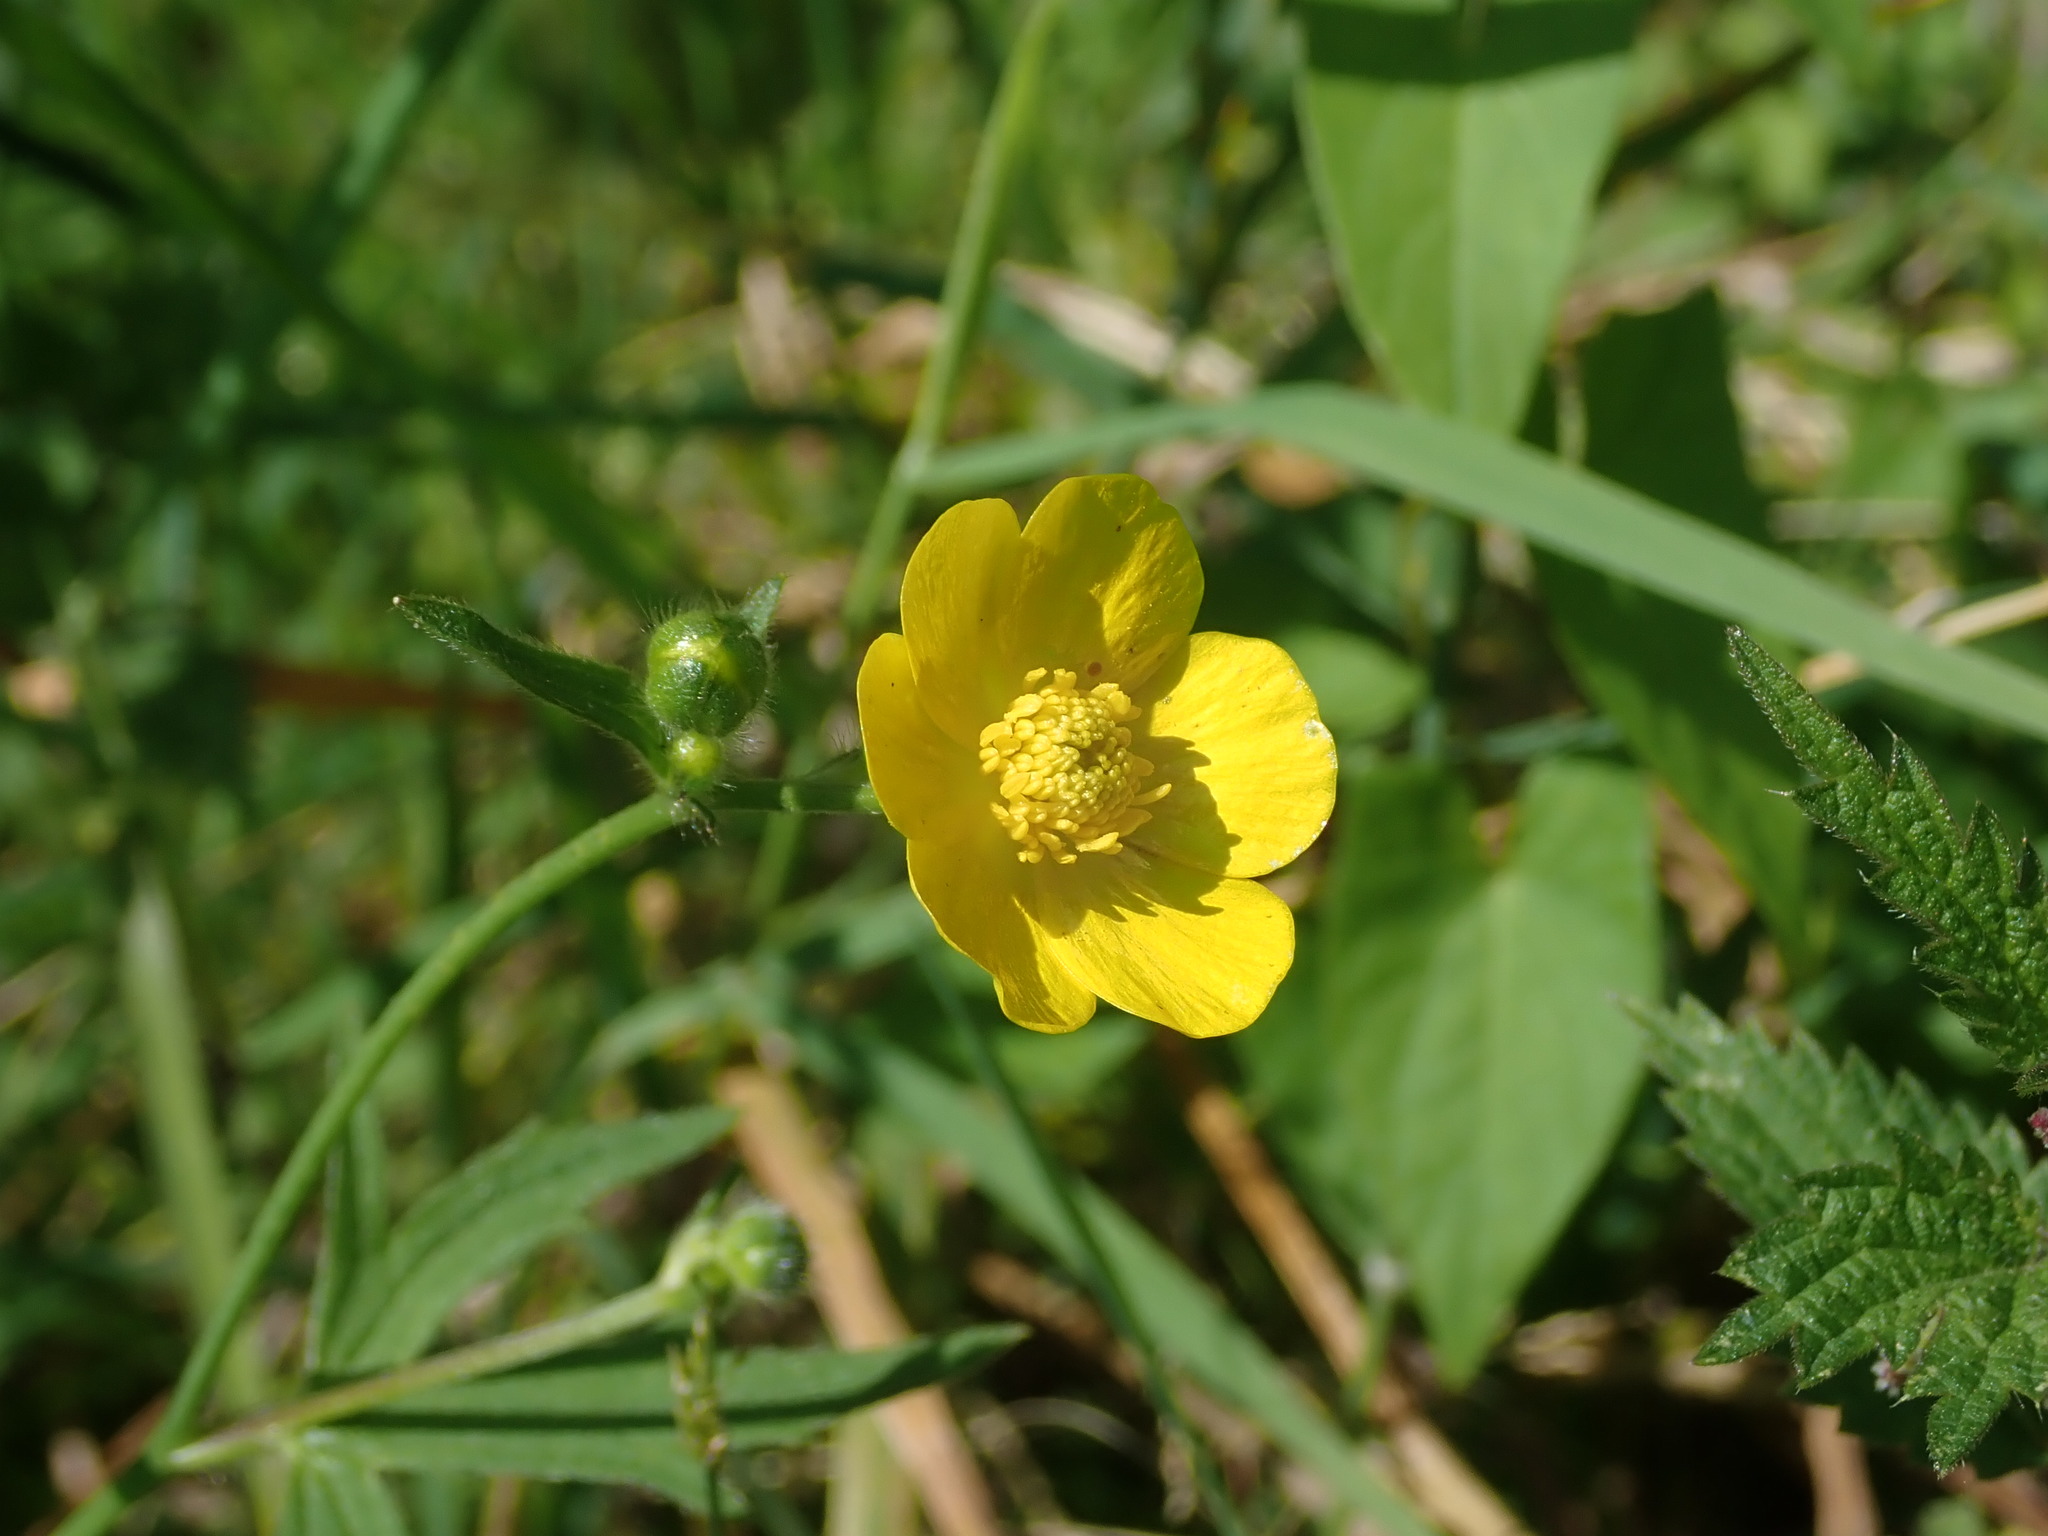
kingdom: Plantae
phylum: Tracheophyta
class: Magnoliopsida
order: Ranunculales
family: Ranunculaceae
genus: Ranunculus
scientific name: Ranunculus acris
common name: Meadow buttercup
